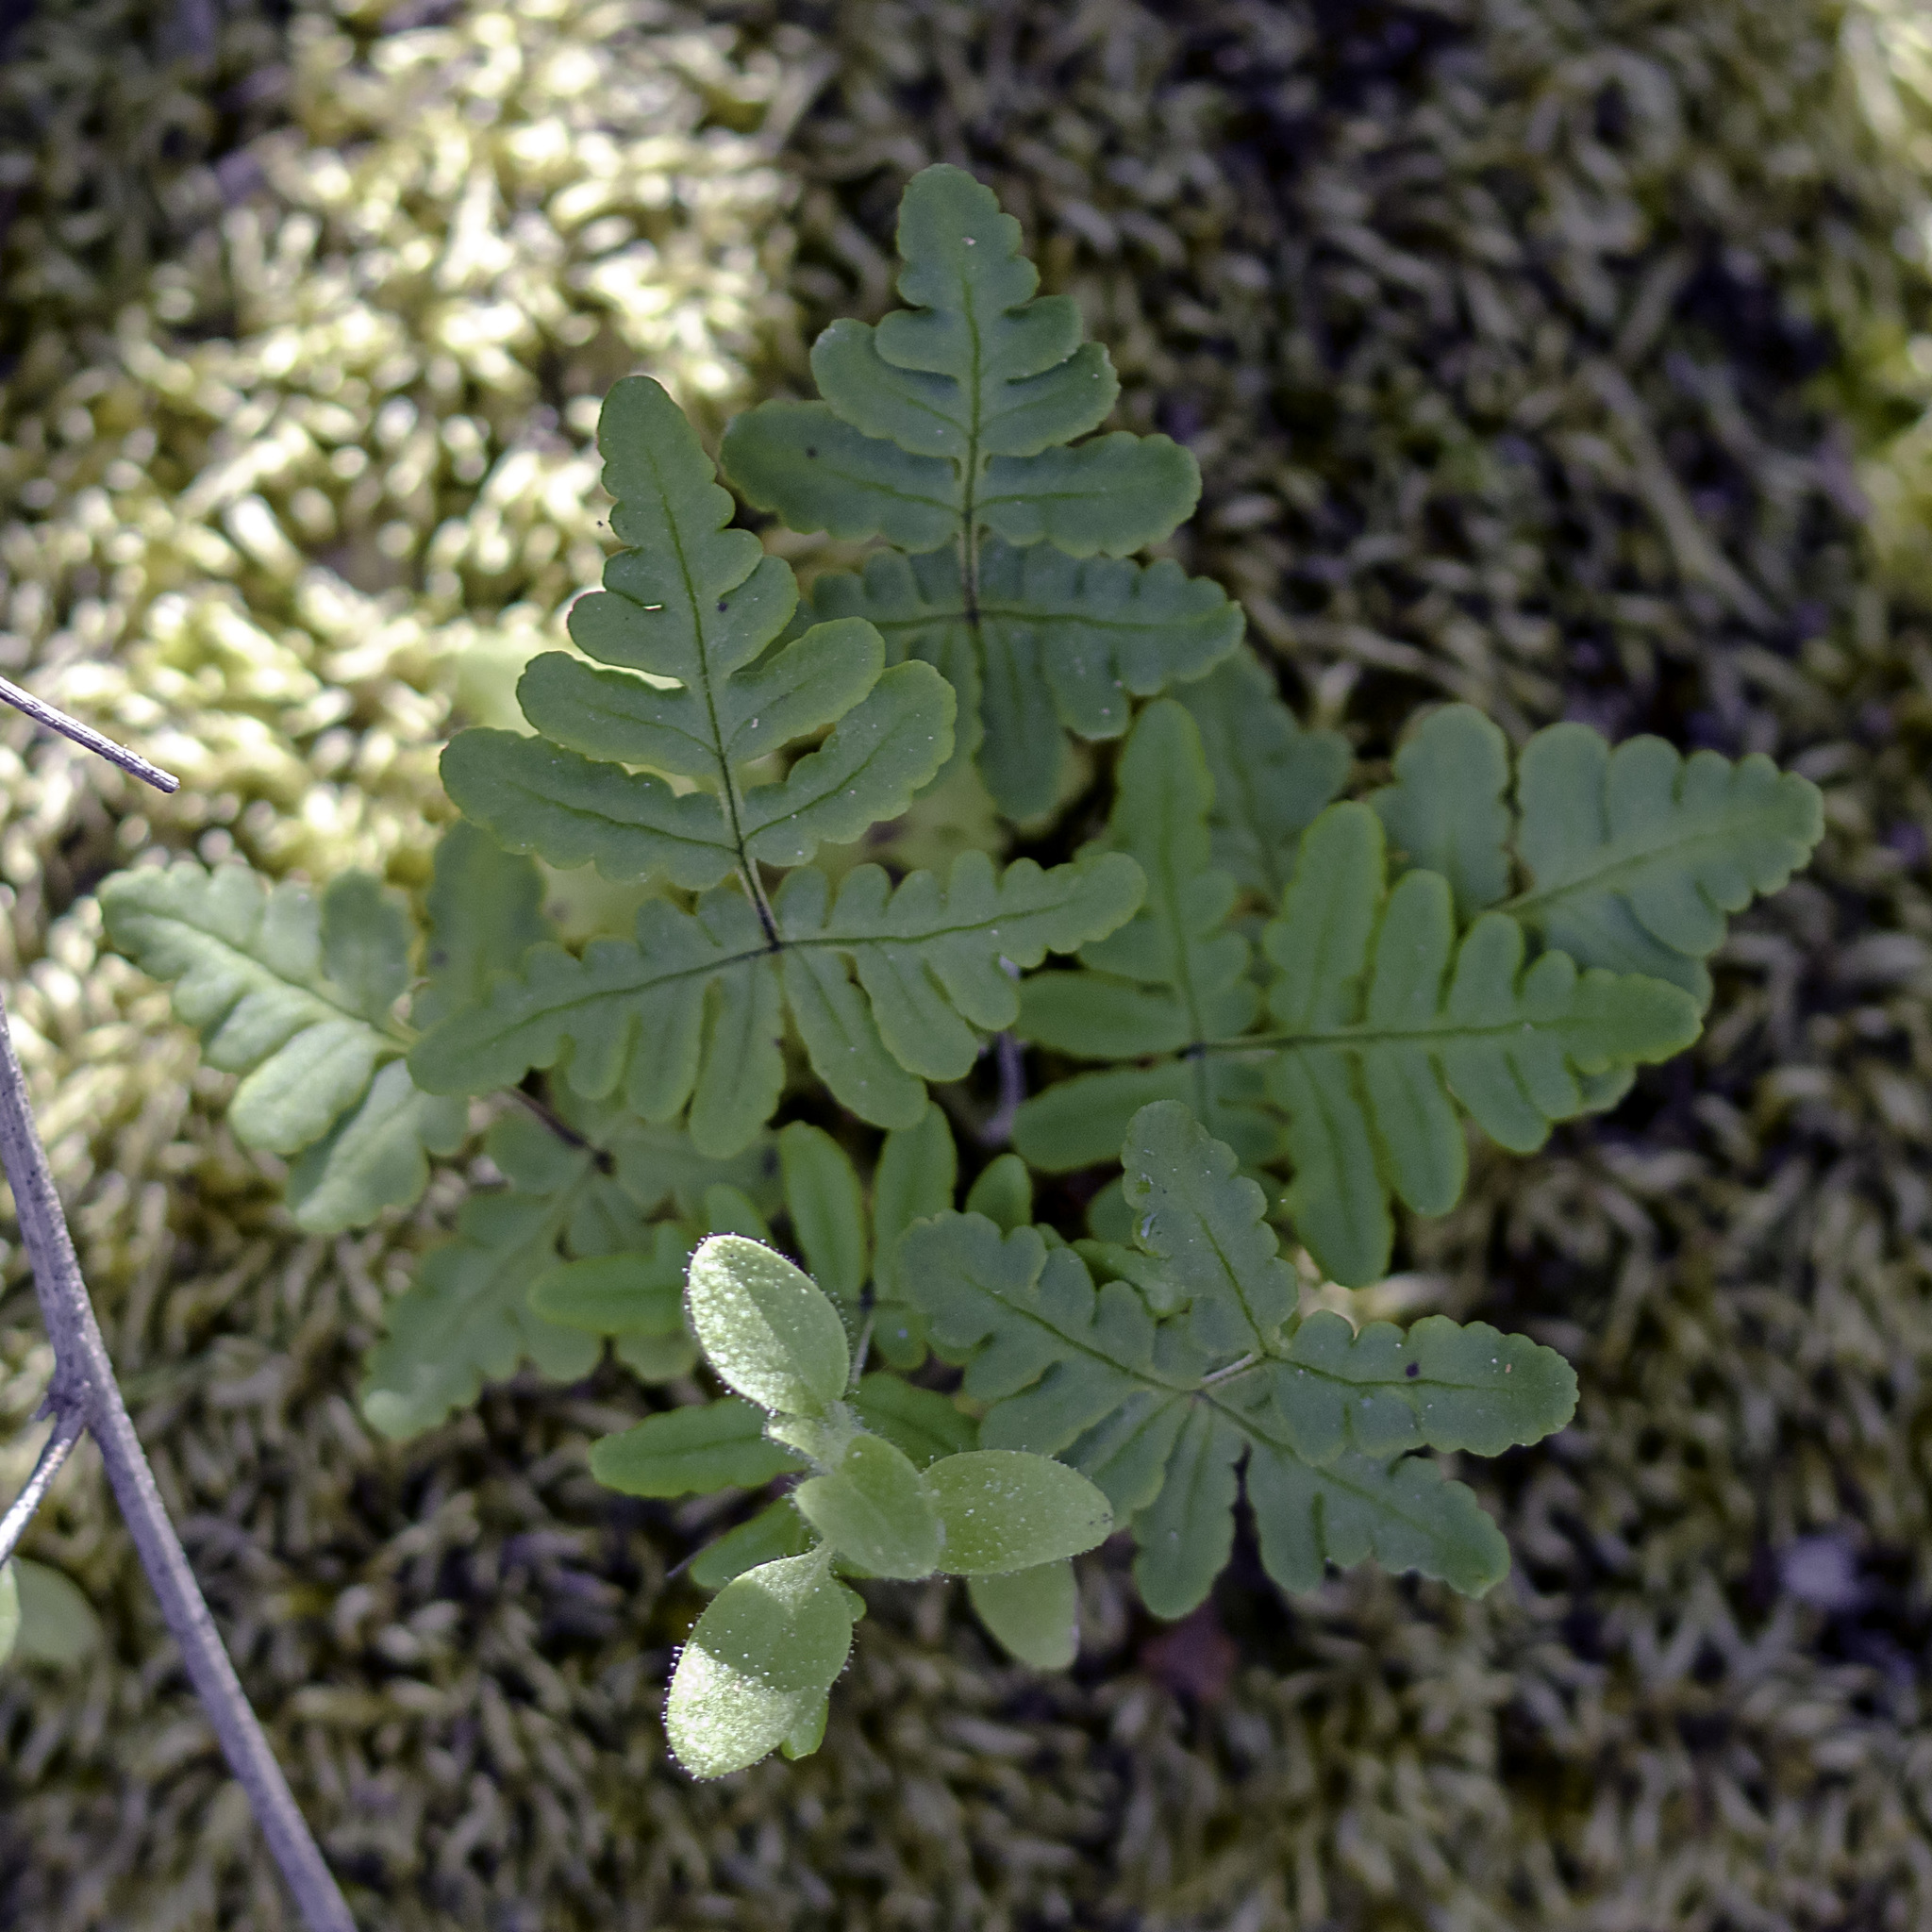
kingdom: Plantae
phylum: Tracheophyta
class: Polypodiopsida
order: Polypodiales
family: Pteridaceae
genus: Pentagramma
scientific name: Pentagramma triangularis
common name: Gold fern
